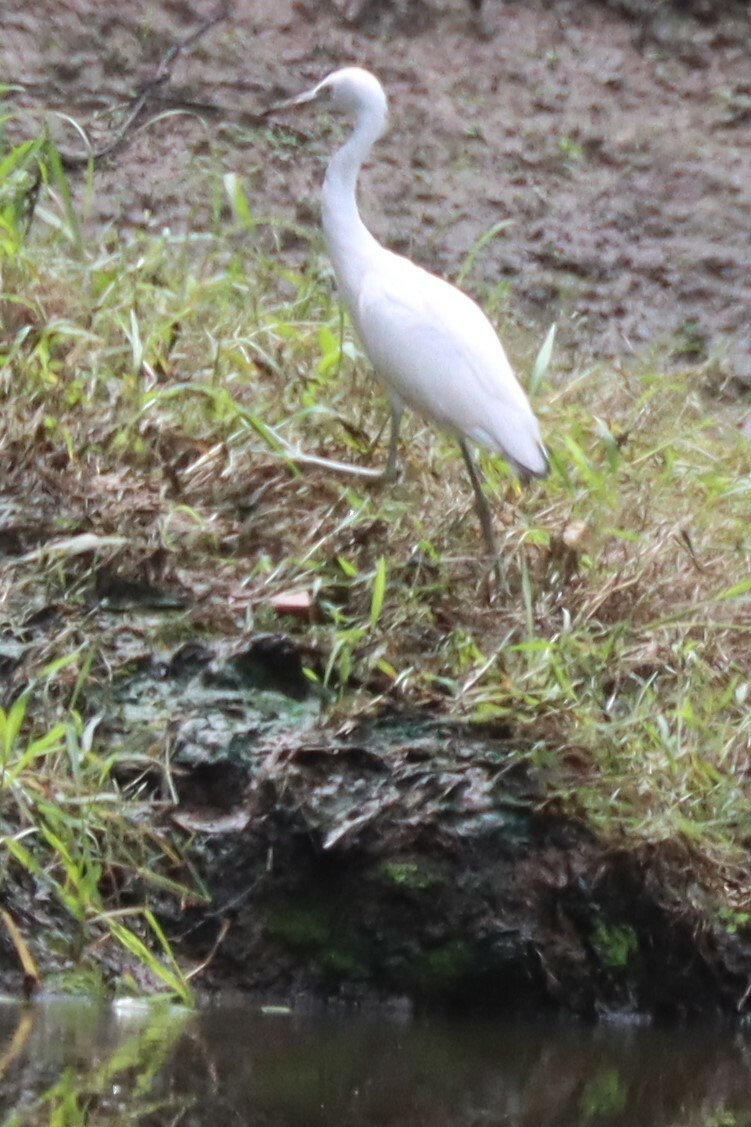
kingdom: Animalia
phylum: Chordata
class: Aves
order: Pelecaniformes
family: Ardeidae
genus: Egretta
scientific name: Egretta caerulea
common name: Little blue heron
